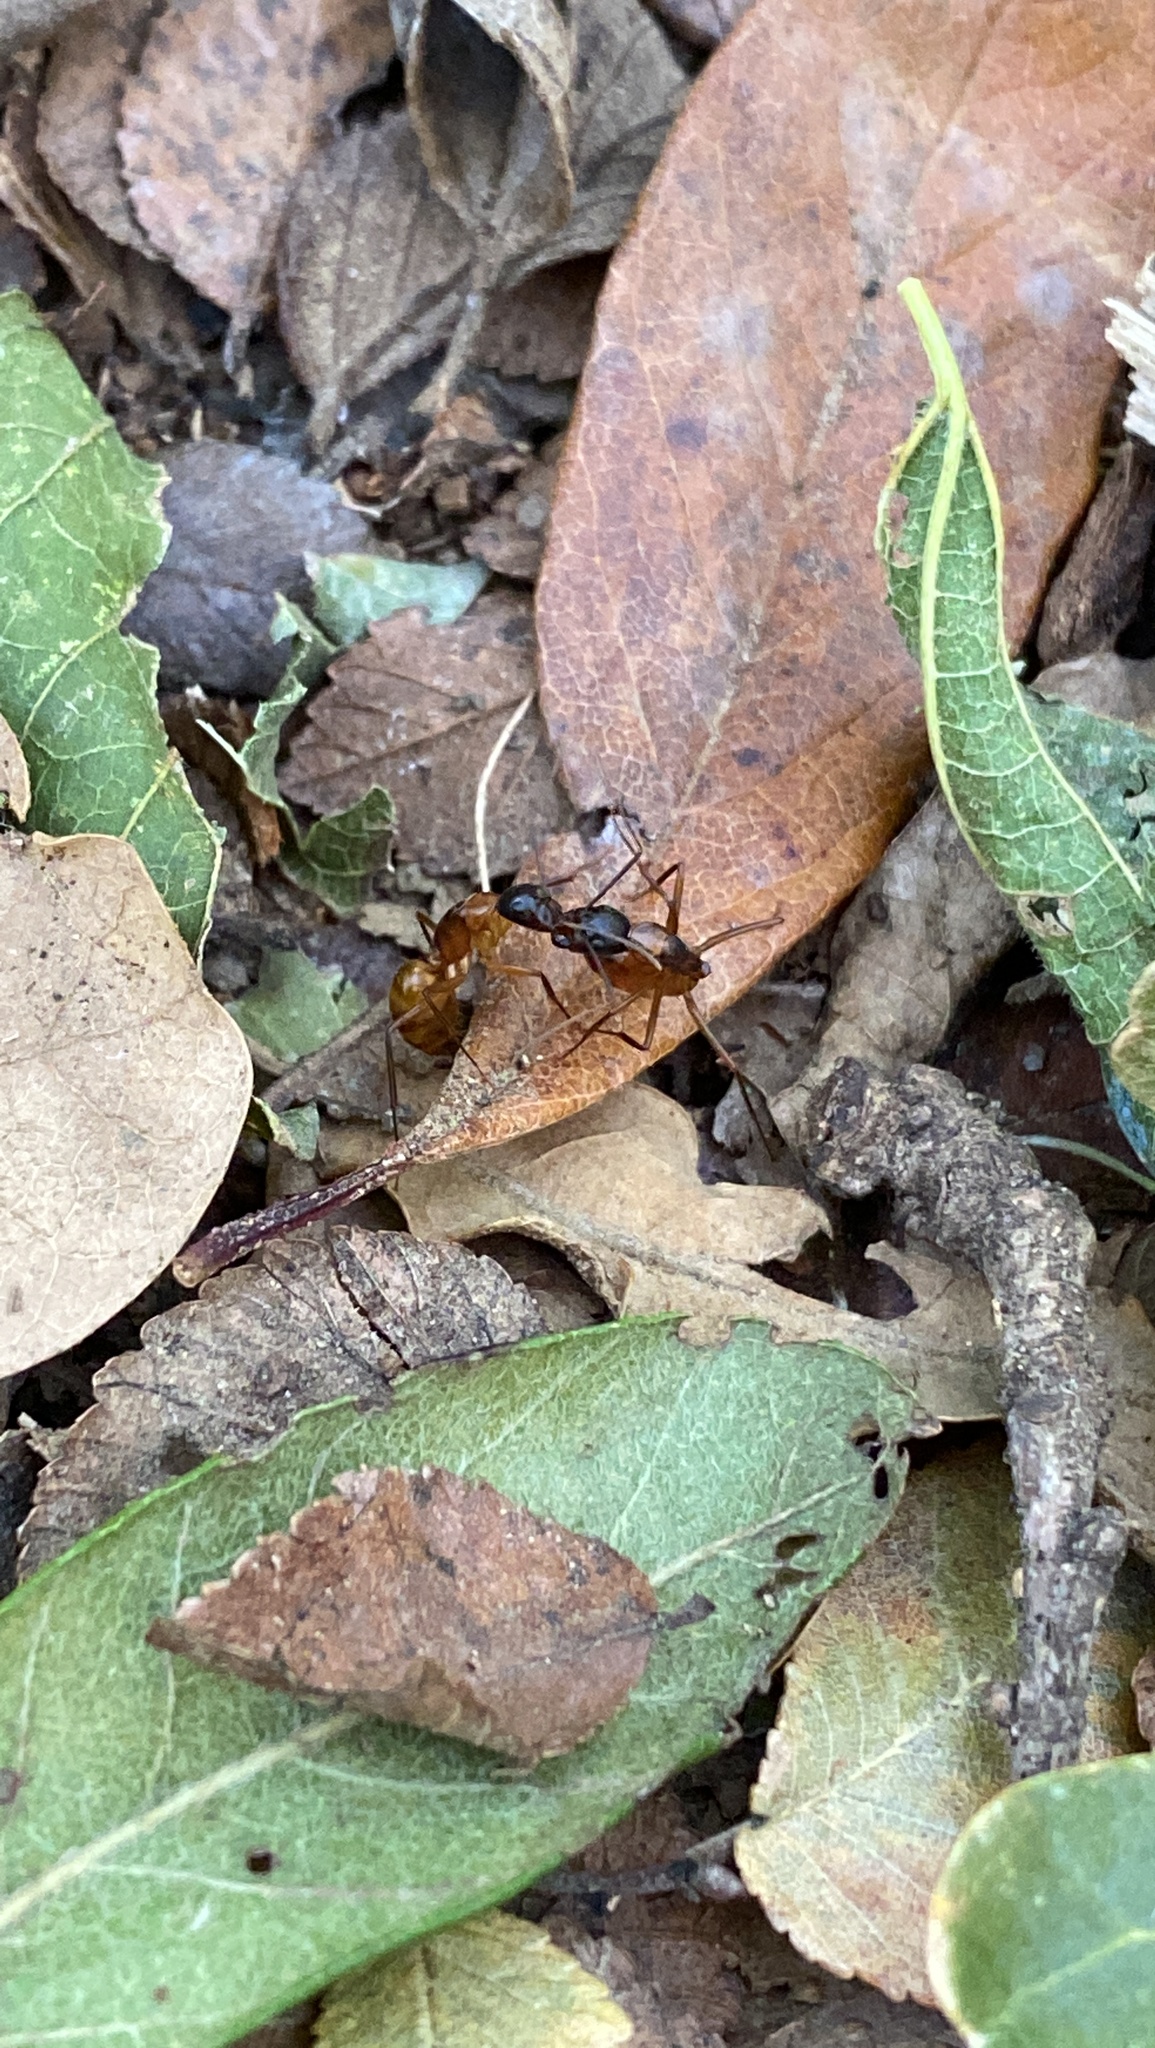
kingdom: Animalia
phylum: Arthropoda
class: Insecta
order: Hymenoptera
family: Formicidae
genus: Camponotus
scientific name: Camponotus americanus
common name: American carpenter ant
